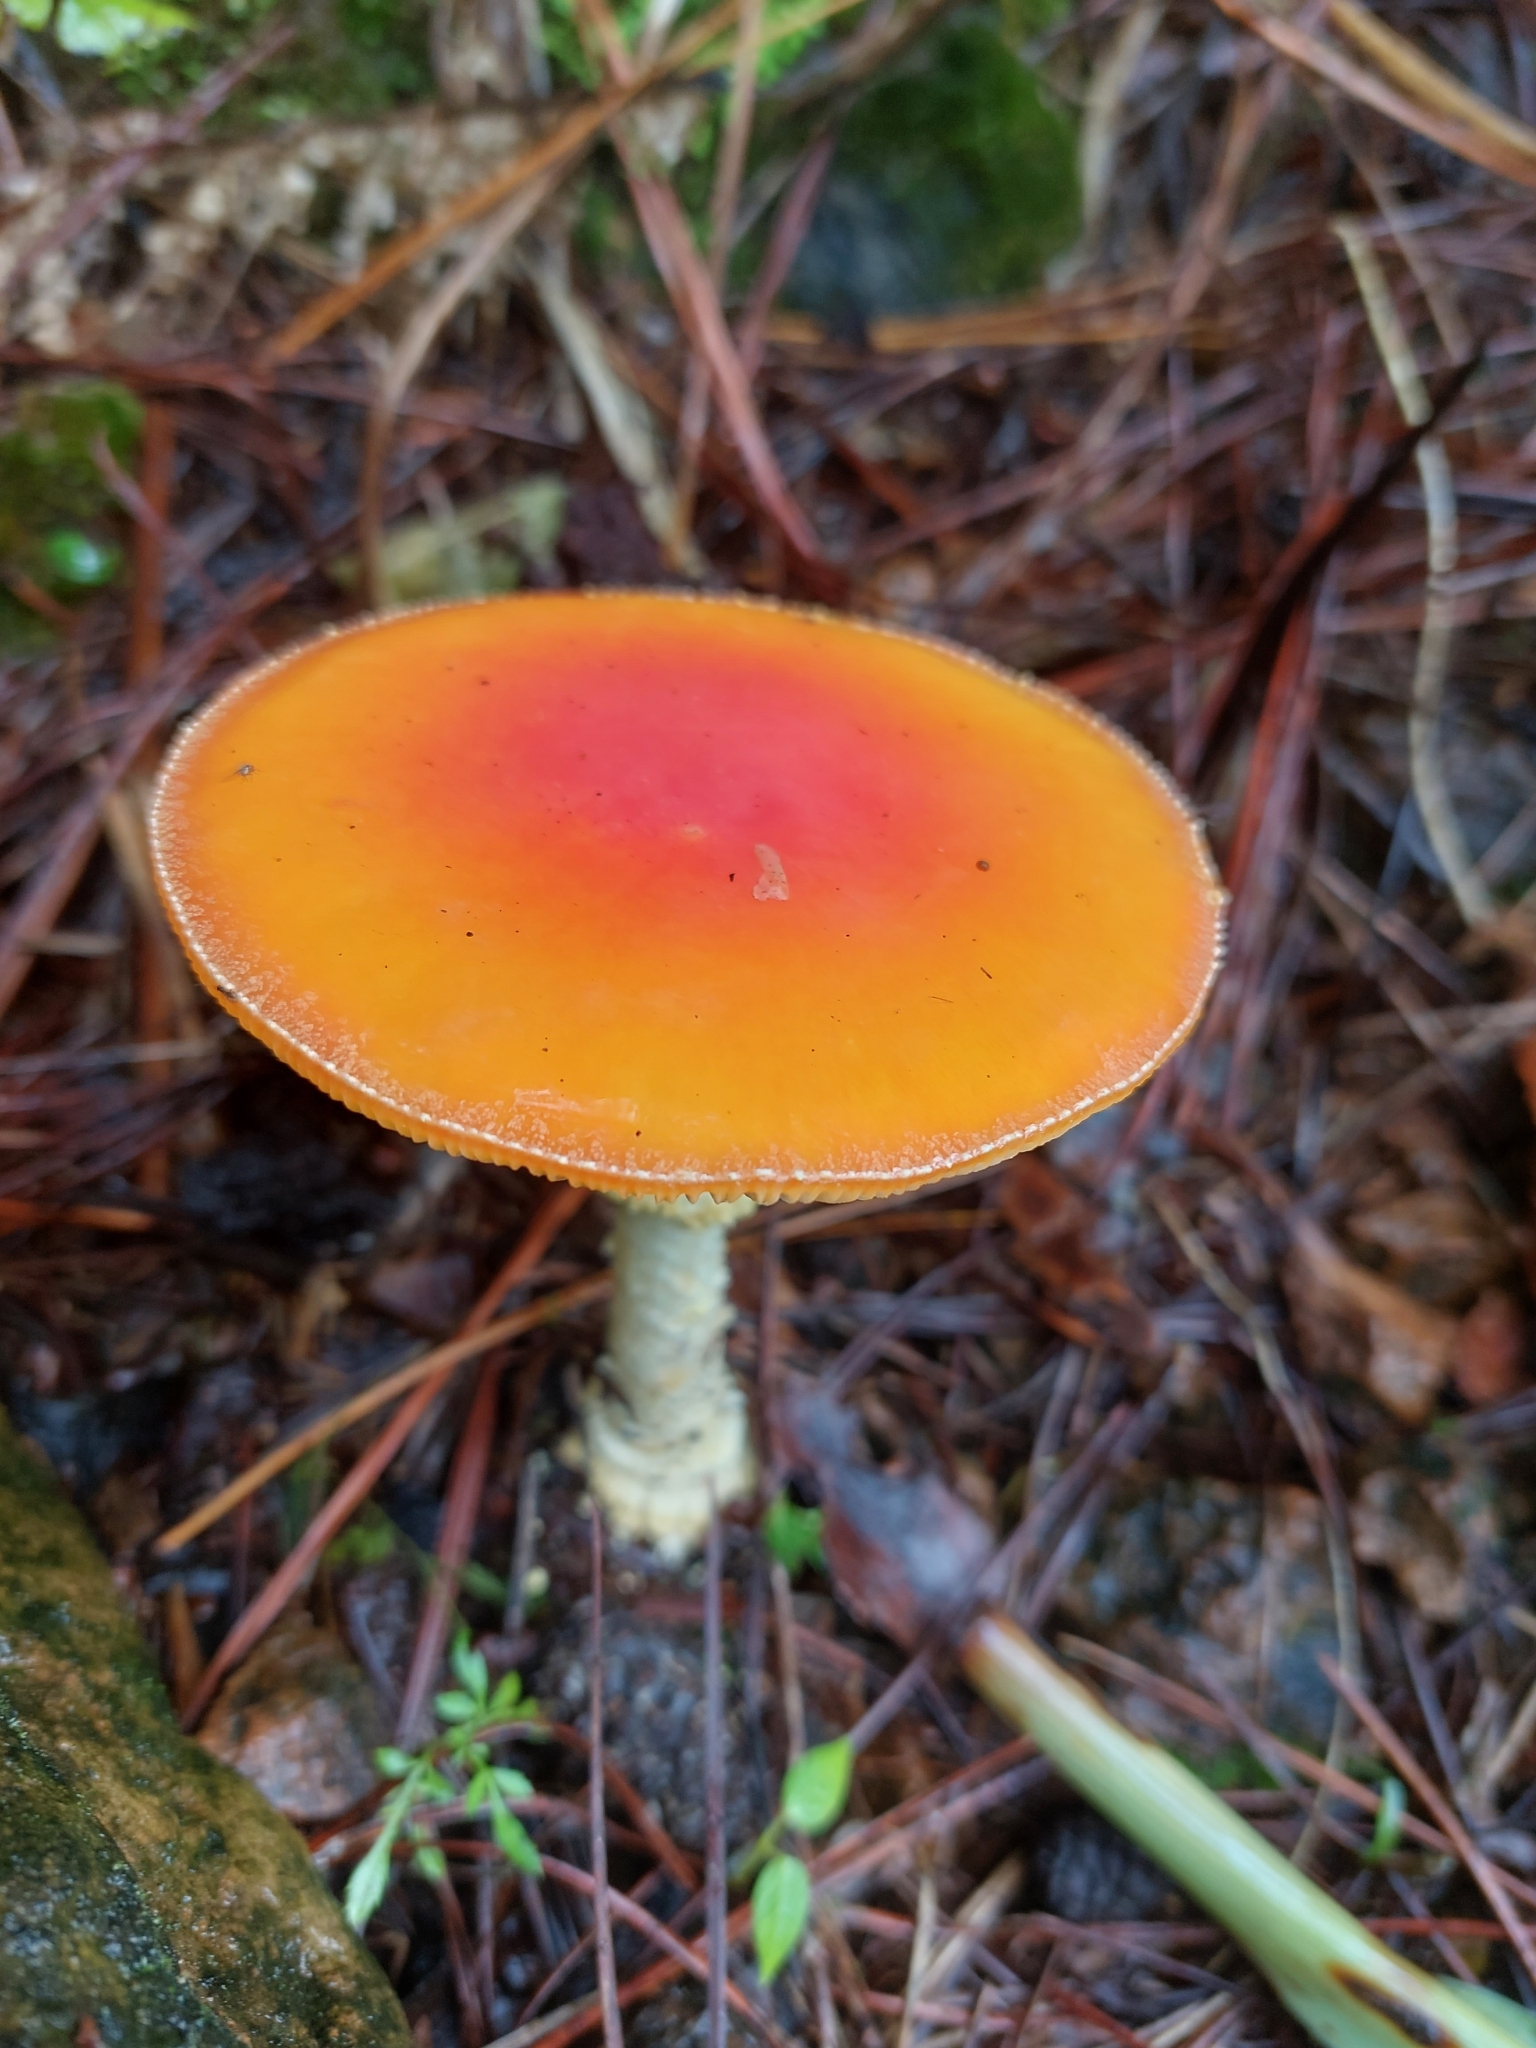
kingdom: Fungi
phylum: Basidiomycota
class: Agaricomycetes
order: Agaricales
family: Amanitaceae
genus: Amanita
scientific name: Amanita muscaria
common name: Fly agaric
